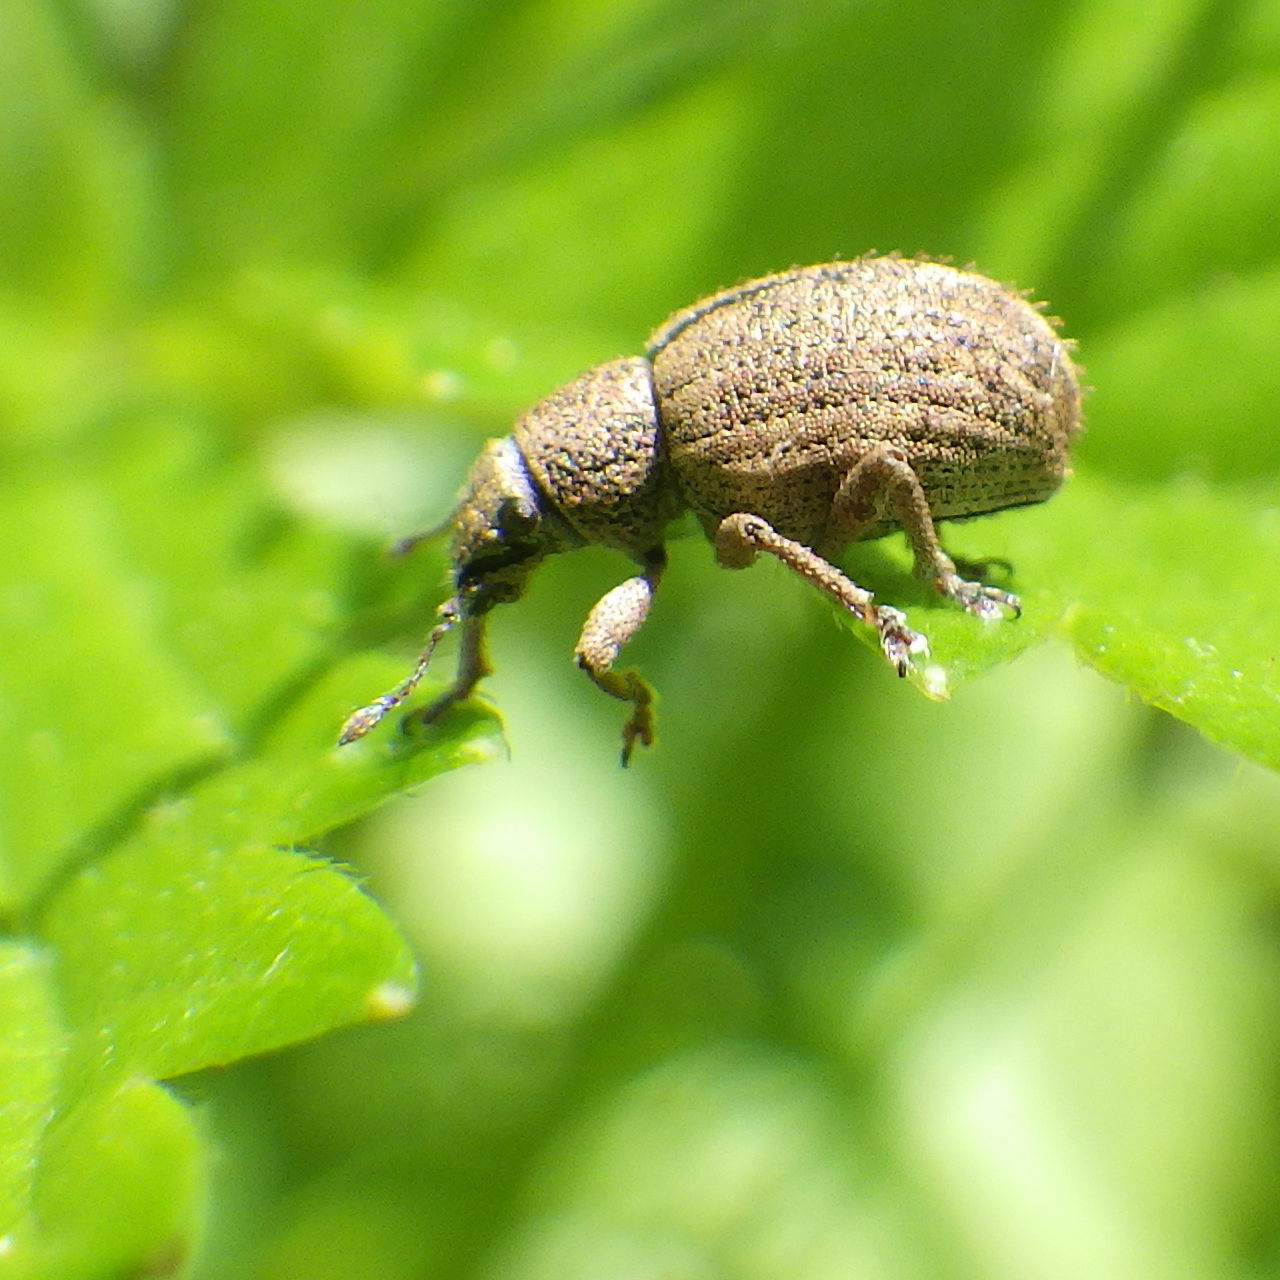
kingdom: Animalia
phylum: Arthropoda
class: Insecta
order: Coleoptera
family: Curculionidae
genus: Strophosoma
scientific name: Strophosoma melanogrammum
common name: Weevil
